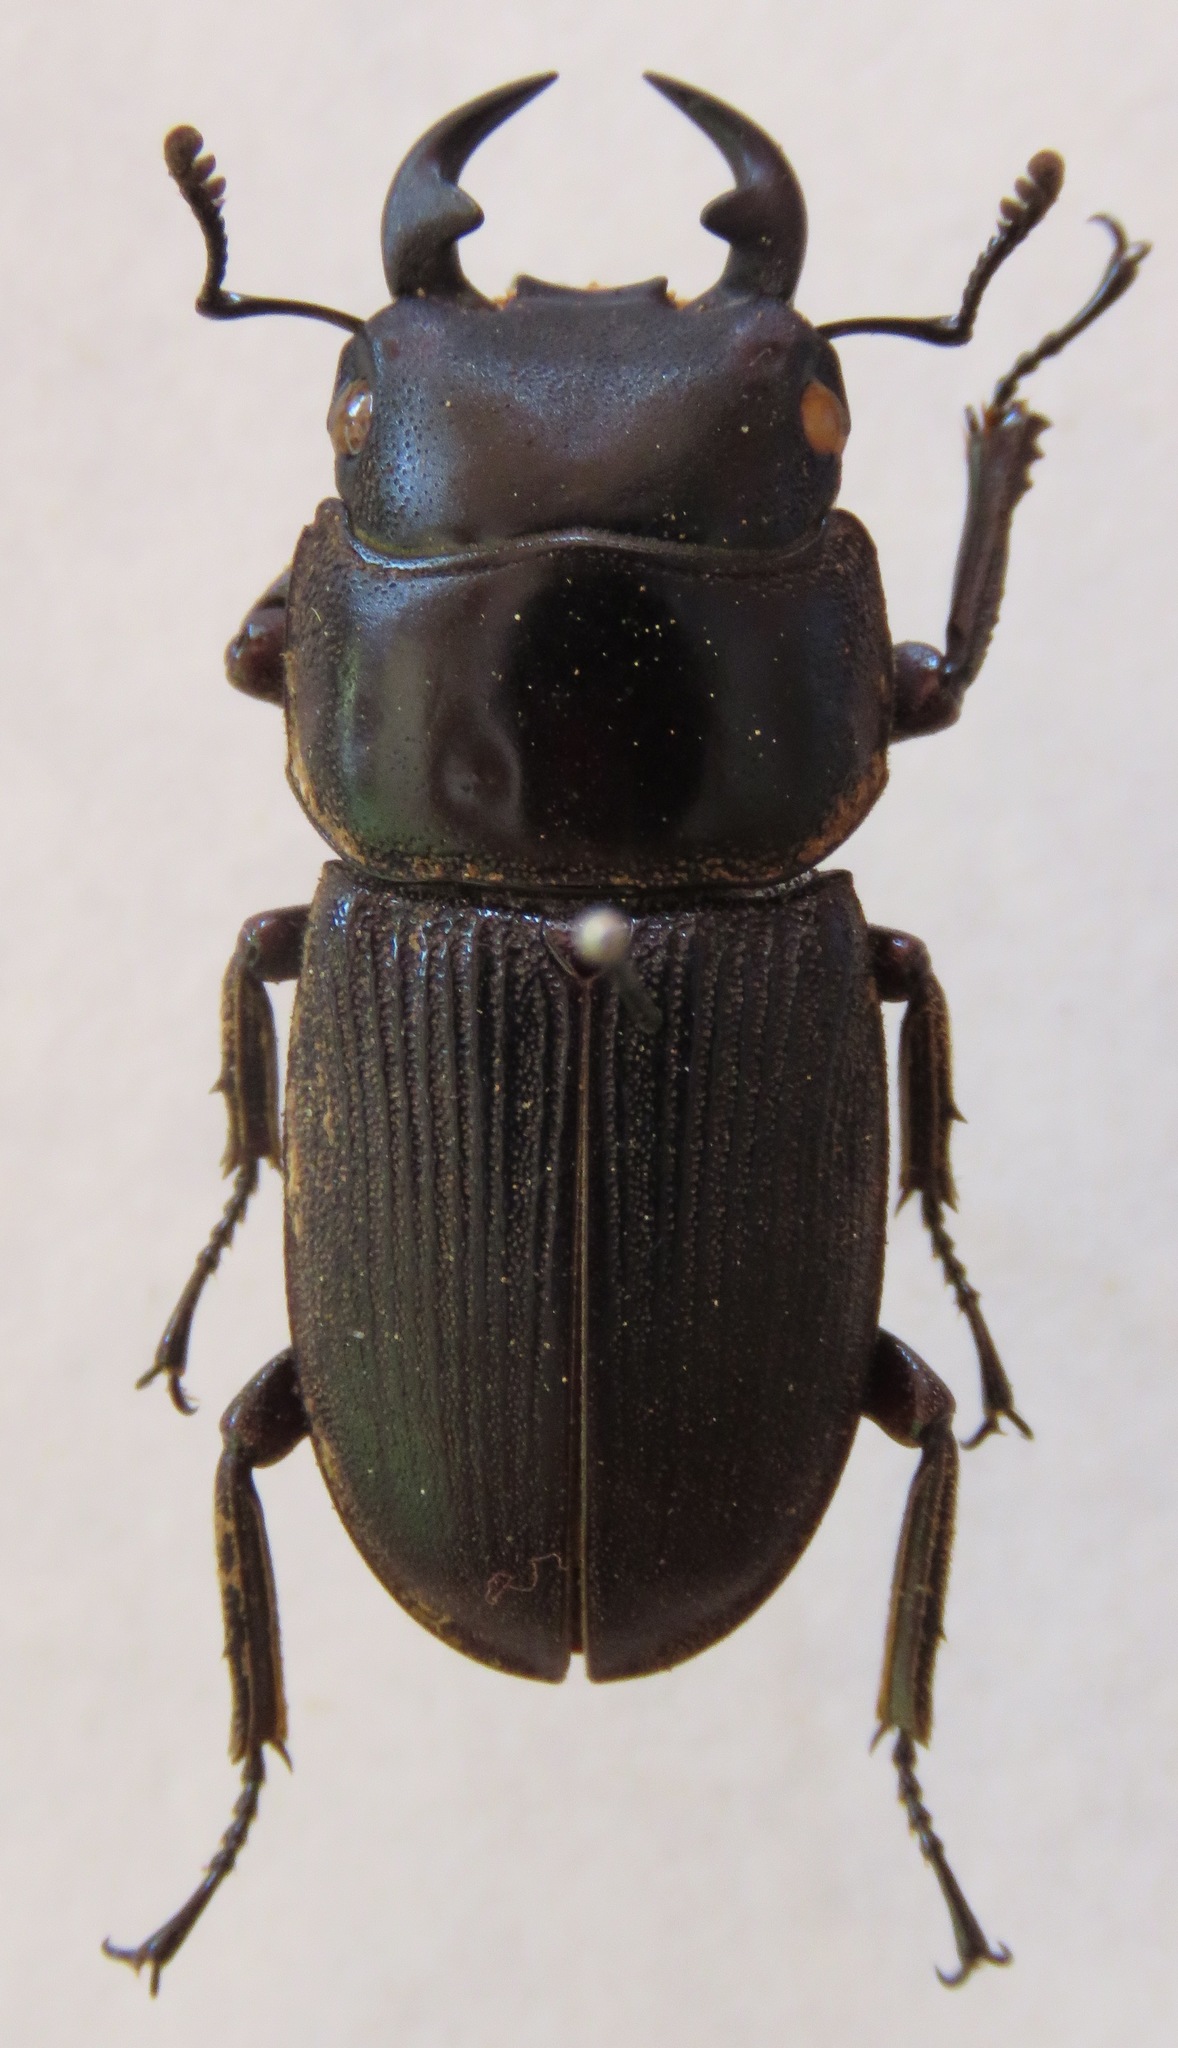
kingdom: Animalia
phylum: Arthropoda
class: Insecta
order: Coleoptera
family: Lucanidae
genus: Dorcus
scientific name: Dorcus ritsemae
